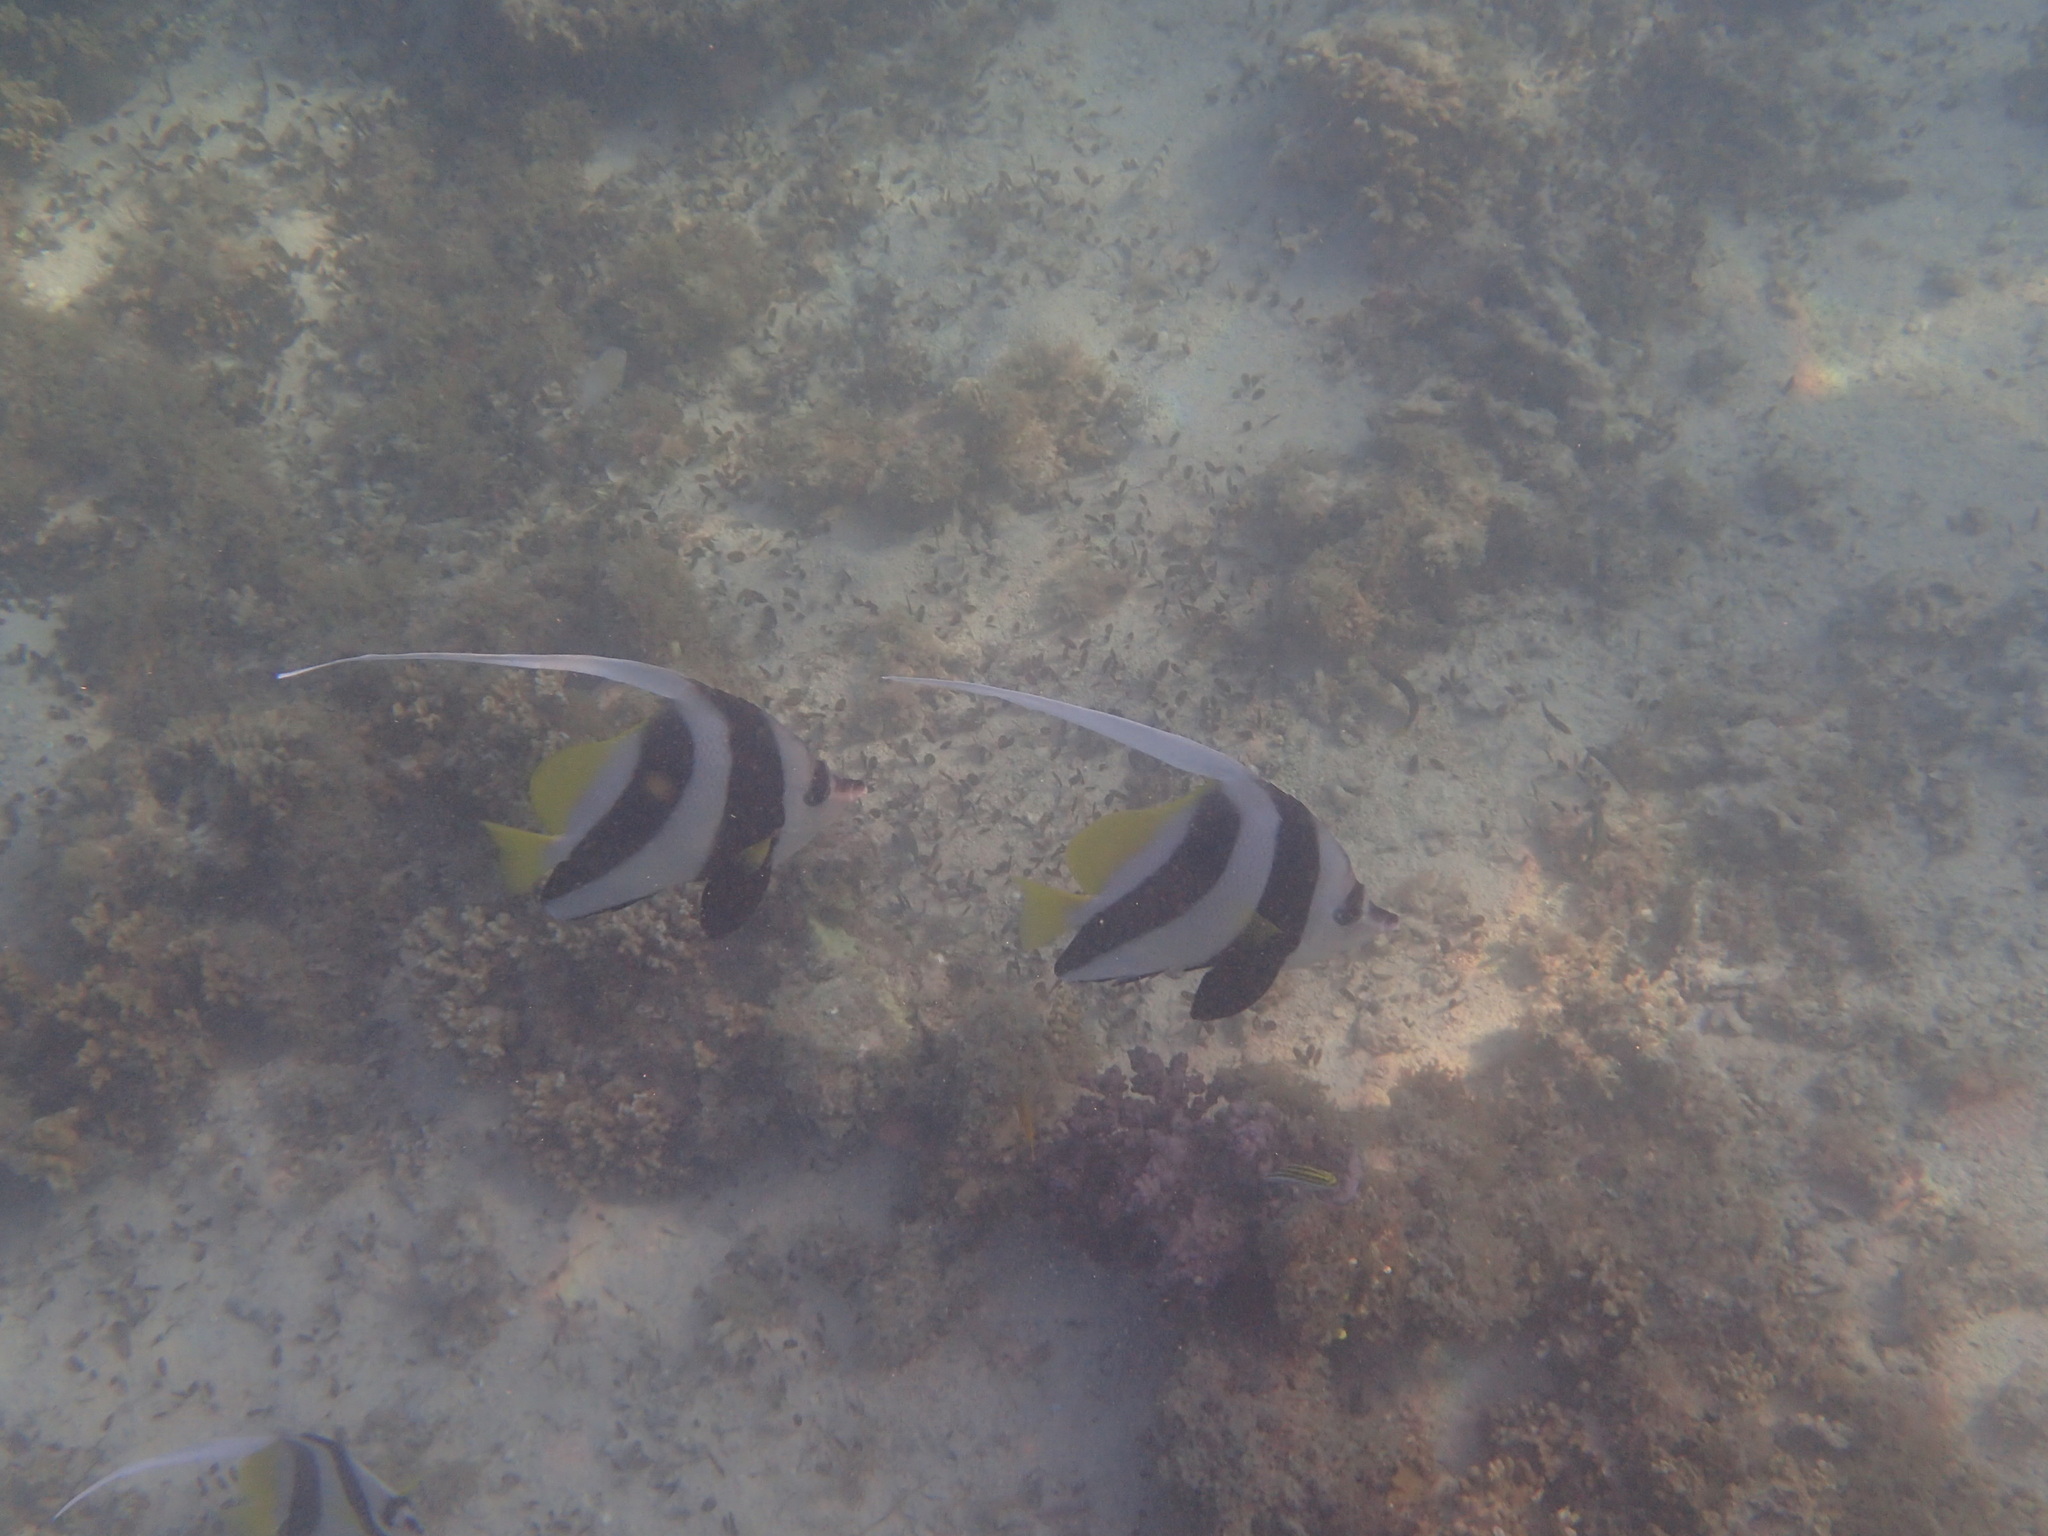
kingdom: Animalia
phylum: Chordata
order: Perciformes
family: Chaetodontidae
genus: Heniochus
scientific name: Heniochus acuminatus
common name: Pennant coralfish
